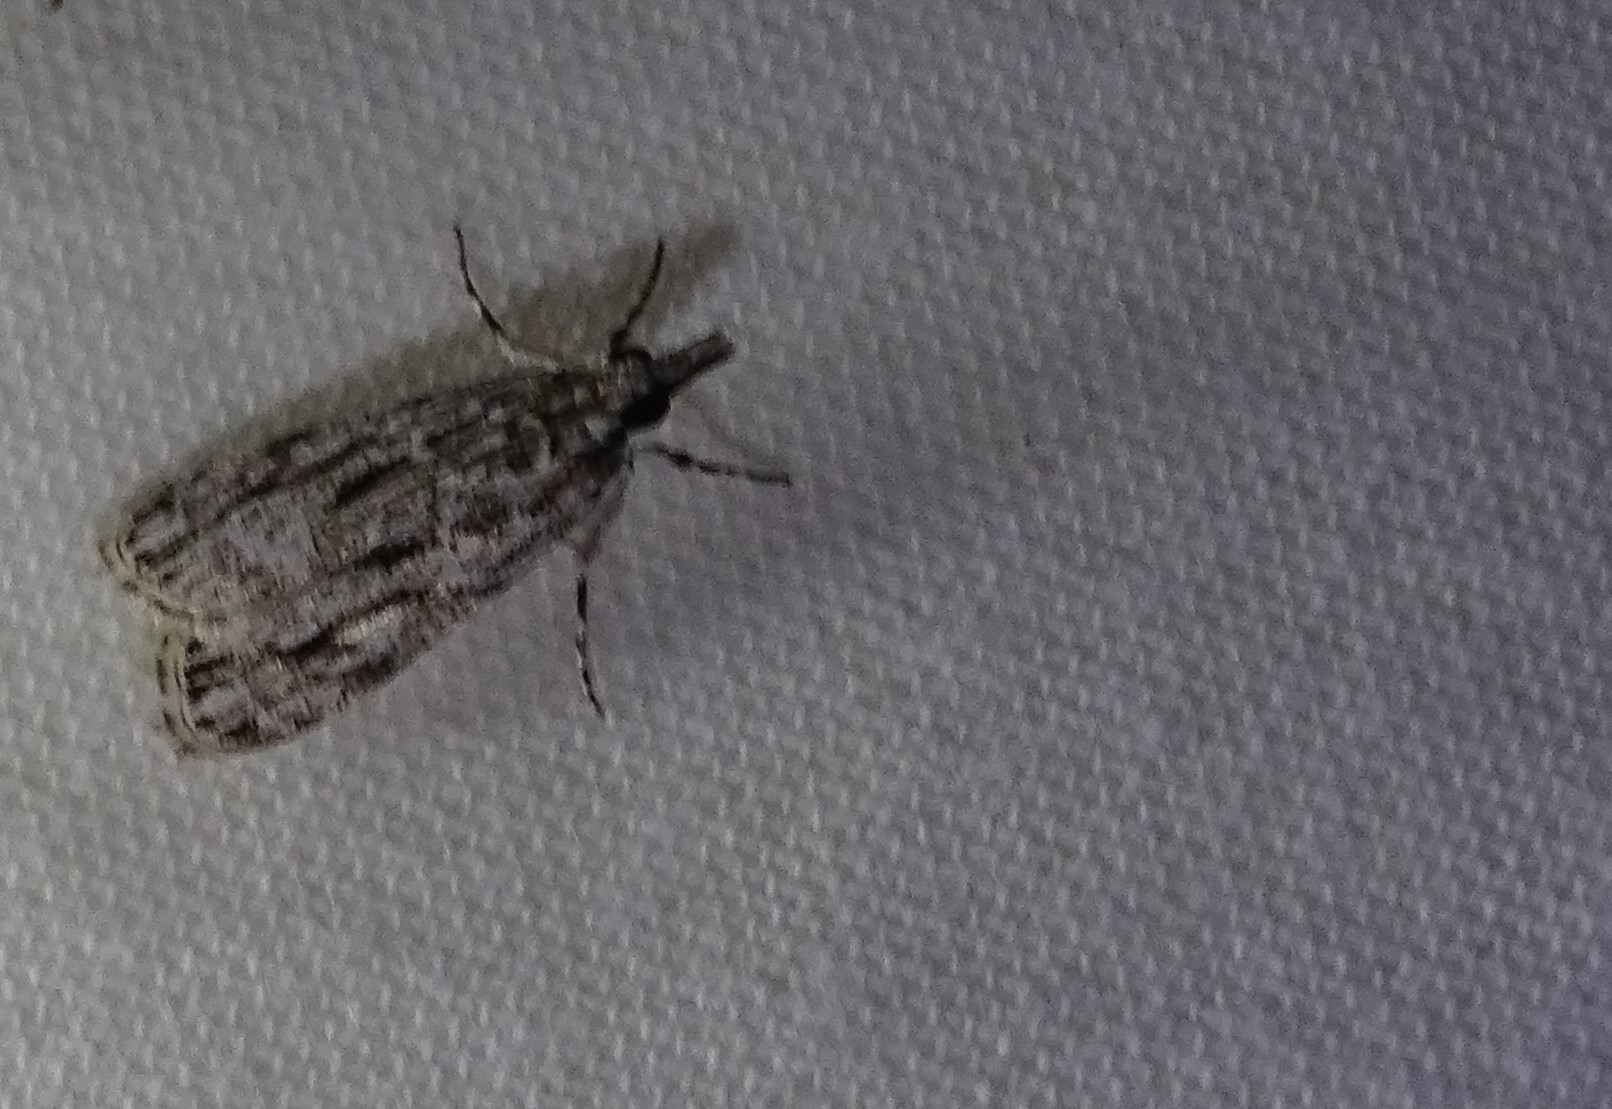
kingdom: Animalia
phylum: Arthropoda
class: Insecta
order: Lepidoptera
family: Crambidae
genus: Eudonia
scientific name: Eudonia strigalis
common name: Striped eudonia moth
